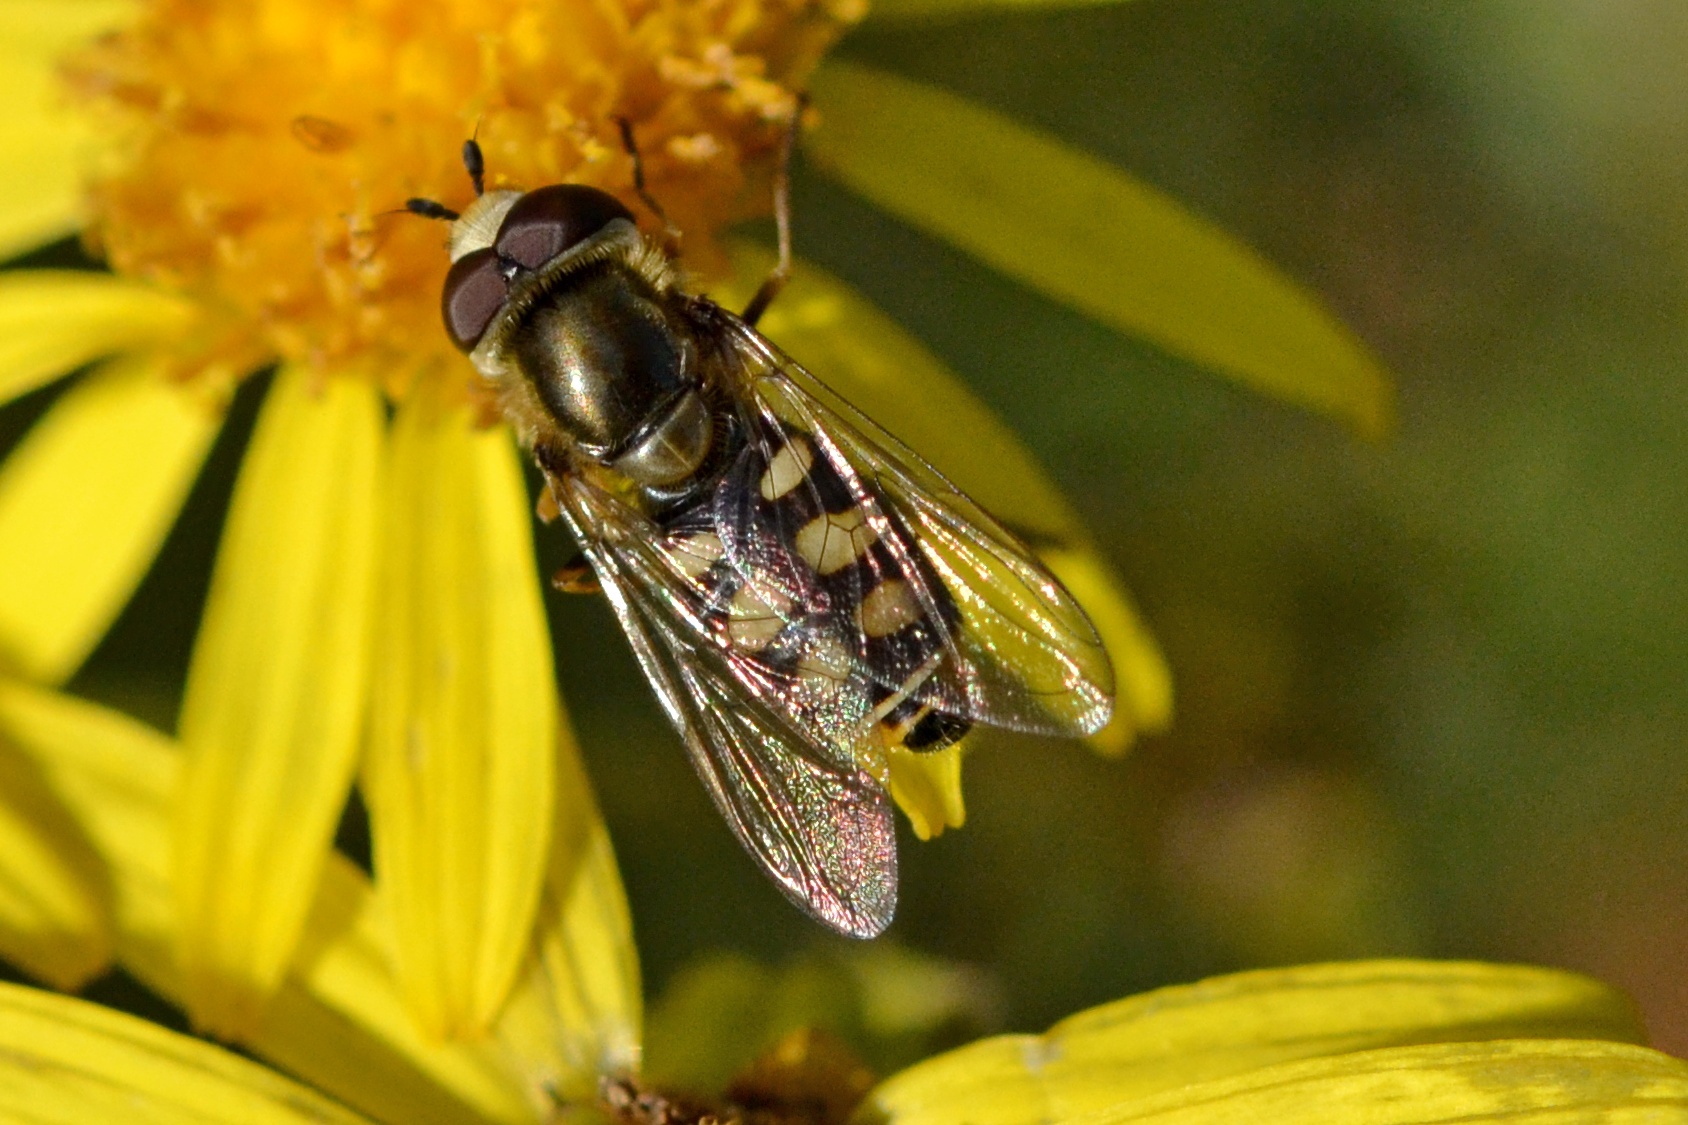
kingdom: Animalia
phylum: Arthropoda
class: Insecta
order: Diptera
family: Syrphidae
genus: Eupeodes
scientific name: Eupeodes corollae
